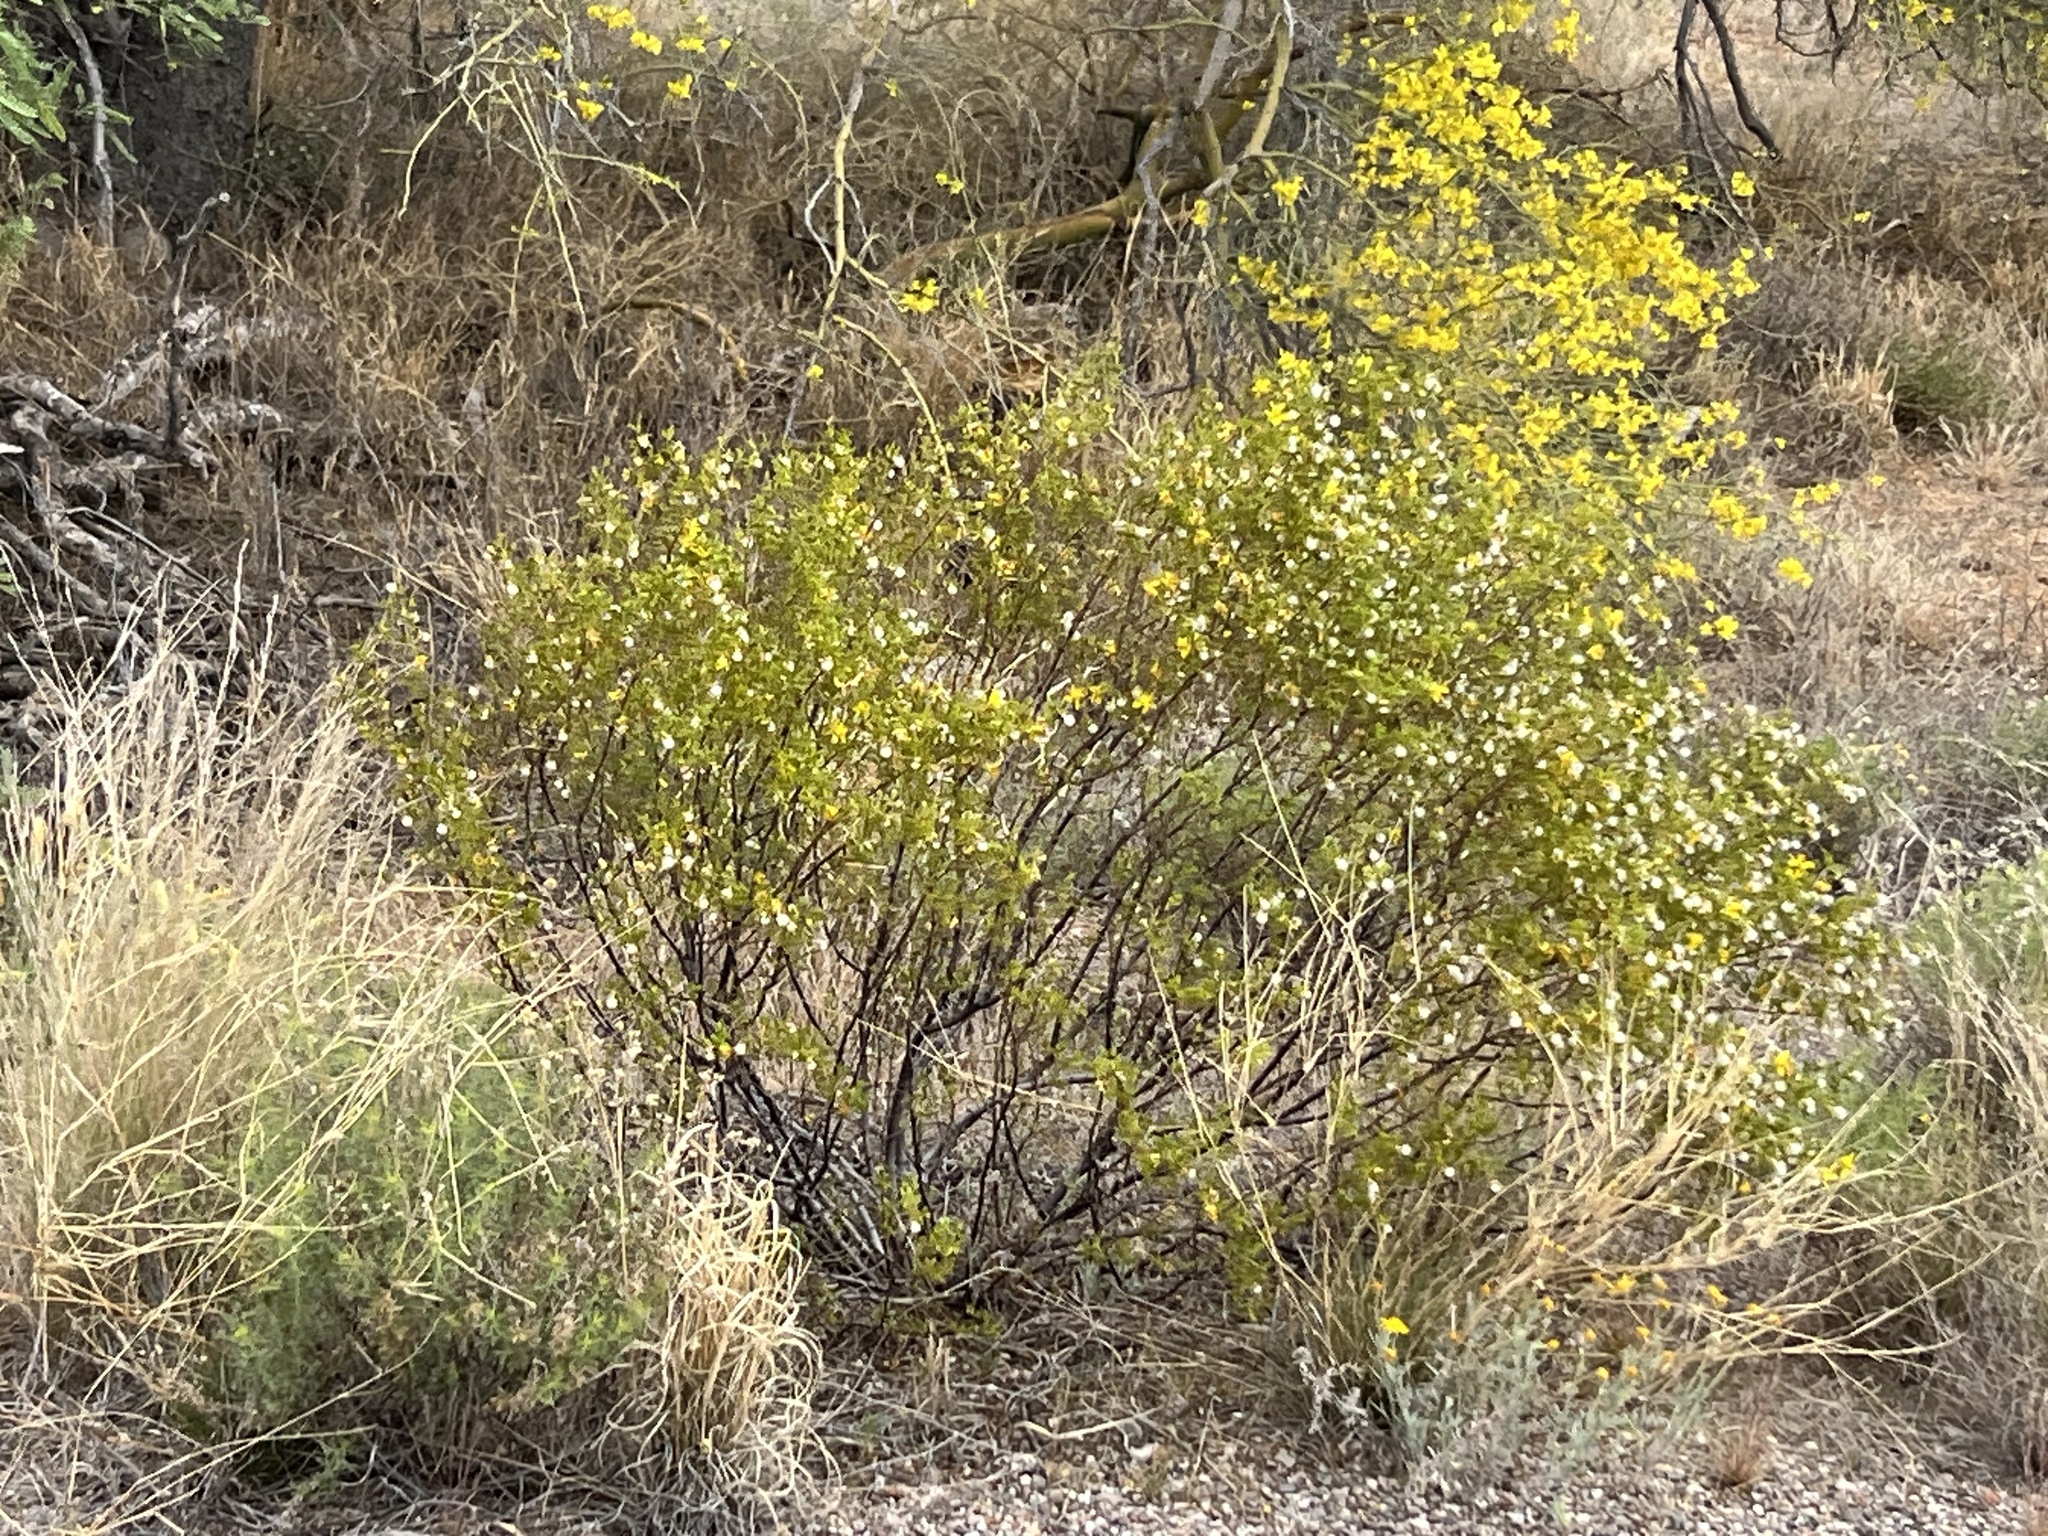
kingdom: Plantae
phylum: Tracheophyta
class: Magnoliopsida
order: Zygophyllales
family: Zygophyllaceae
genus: Larrea
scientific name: Larrea tridentata
